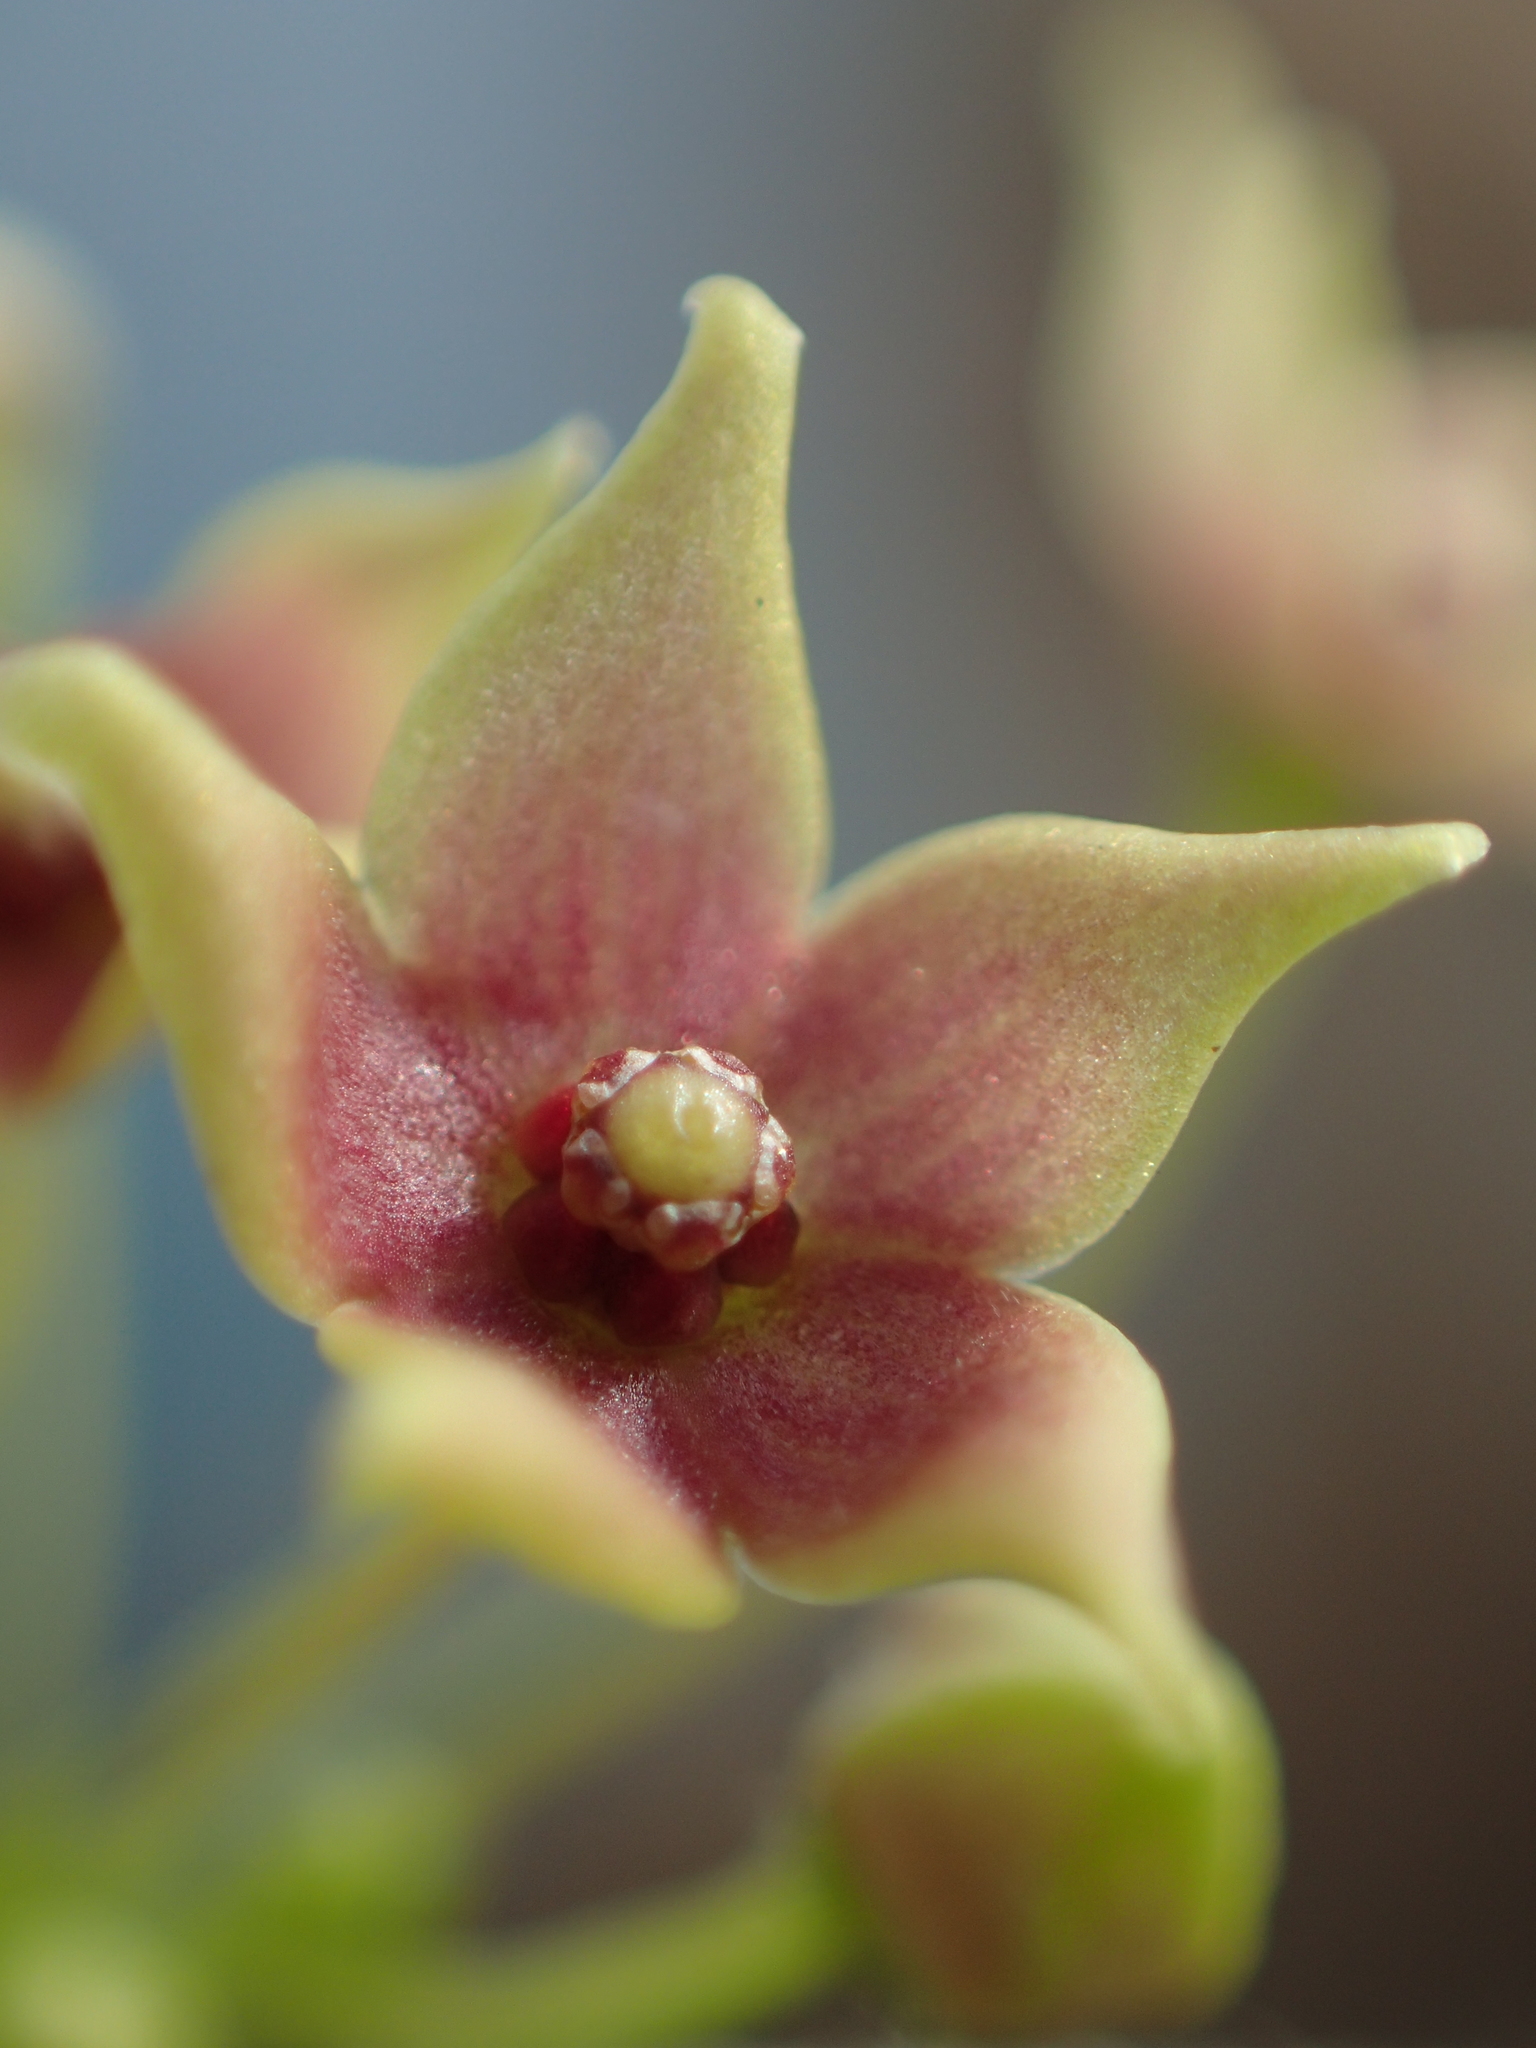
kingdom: Plantae
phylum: Tracheophyta
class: Magnoliopsida
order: Gentianales
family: Apocynaceae
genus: Vincetoxicum
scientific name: Vincetoxicum hirsutum
